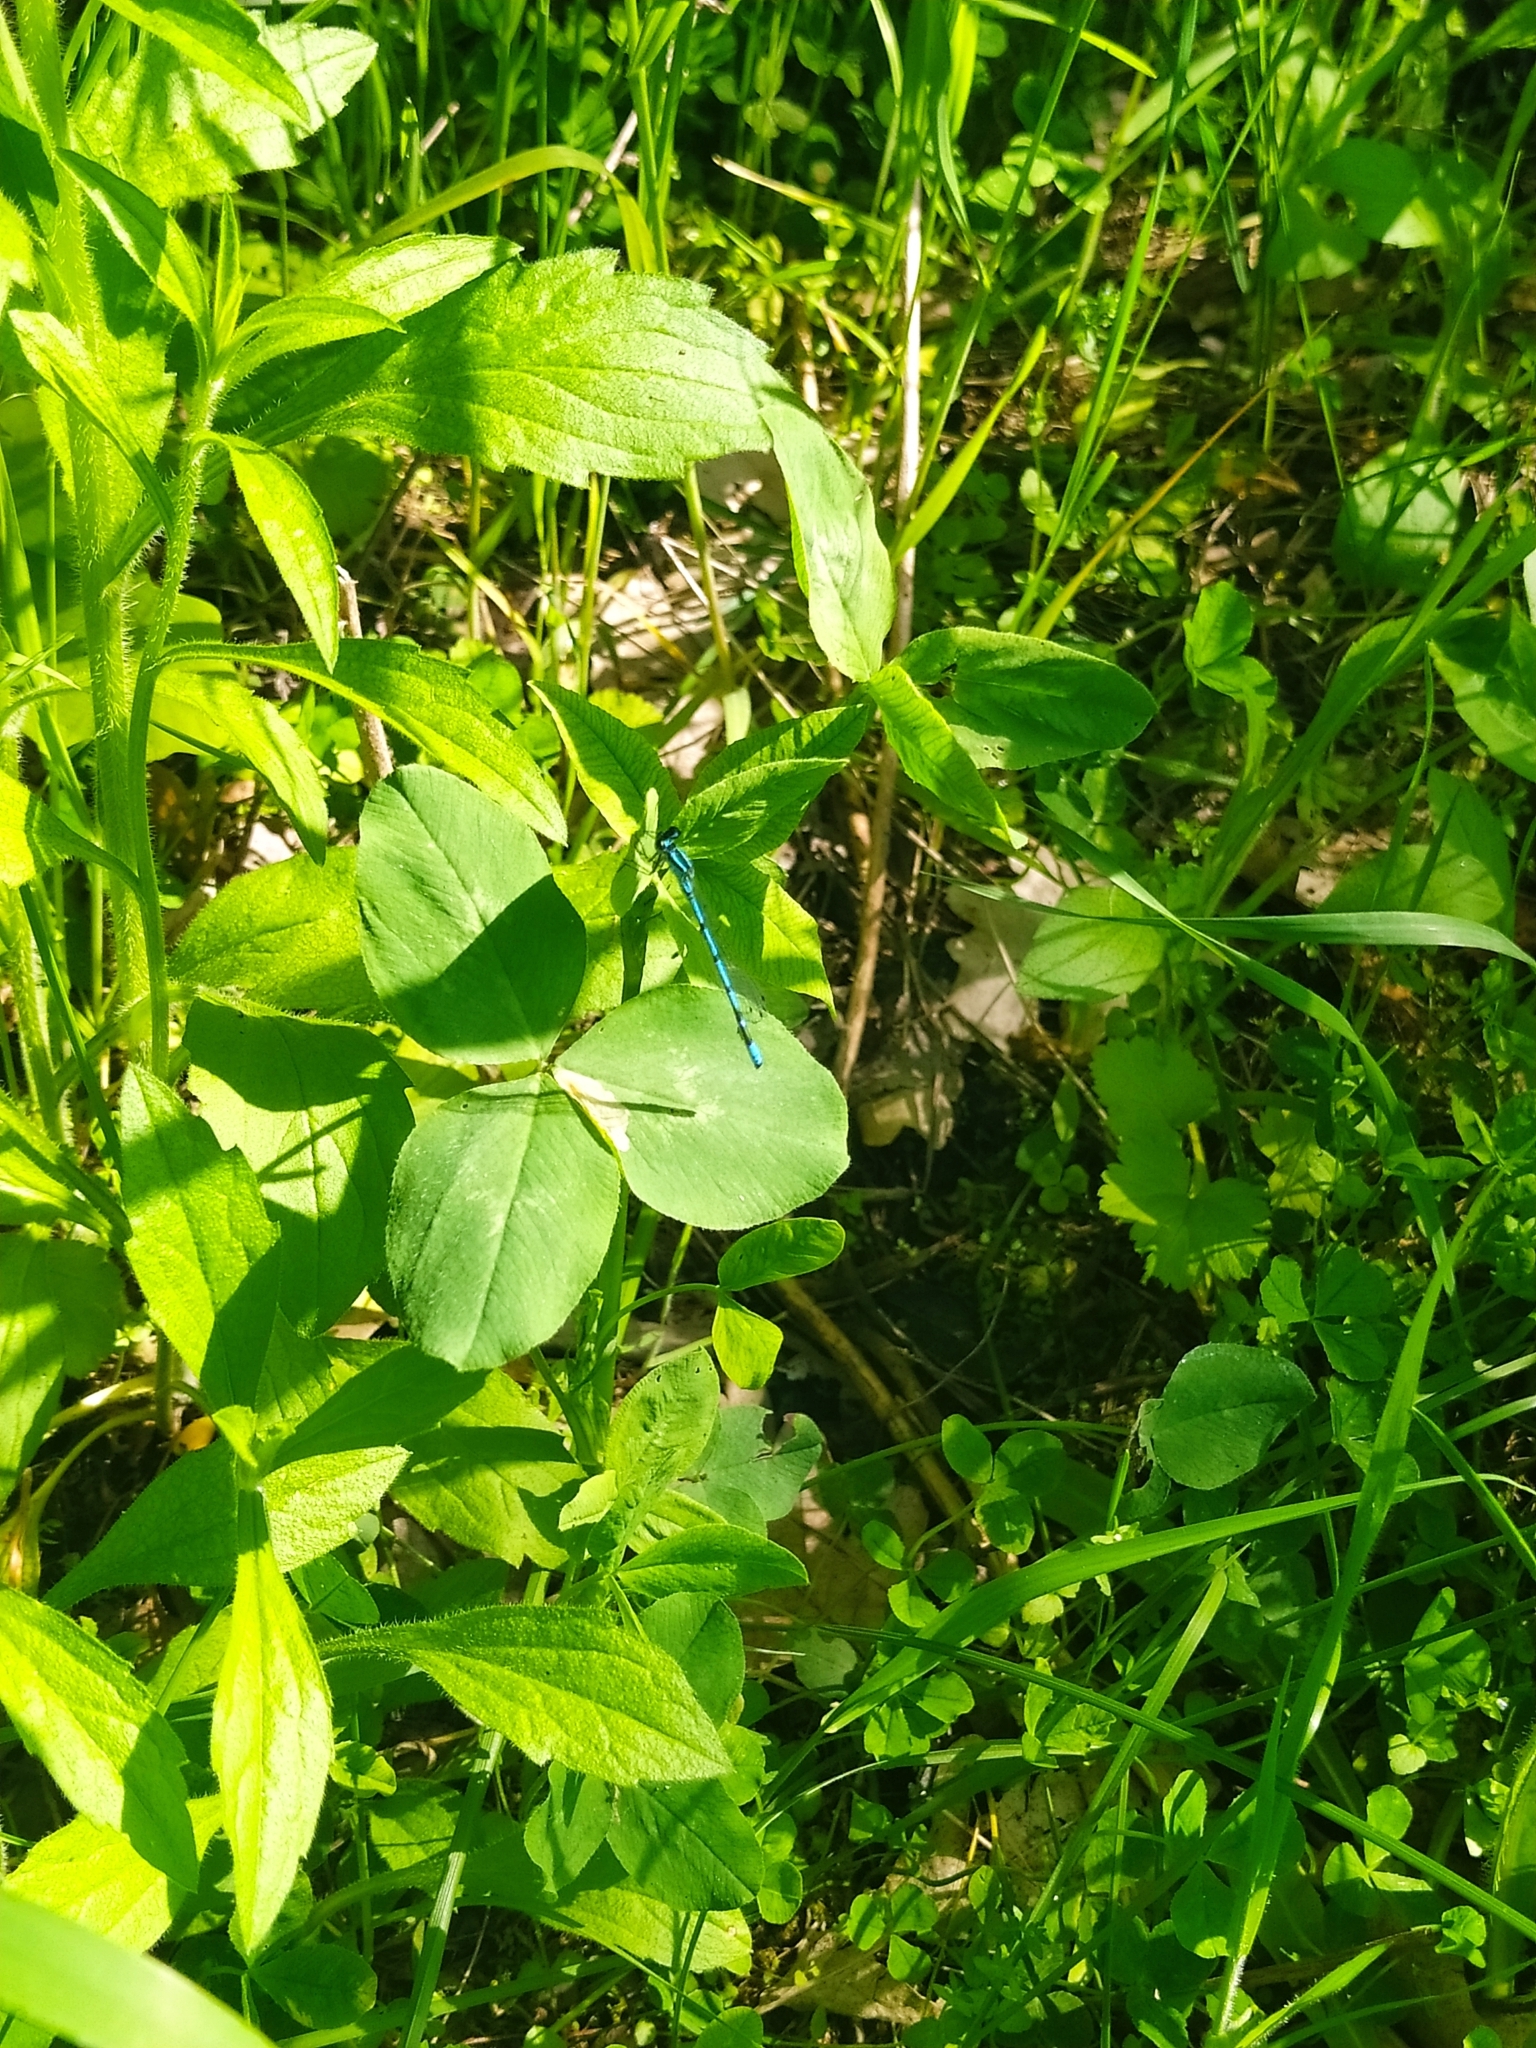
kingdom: Animalia
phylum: Arthropoda
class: Insecta
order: Odonata
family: Coenagrionidae
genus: Coenagrion
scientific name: Coenagrion puella
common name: Azure damselfly
